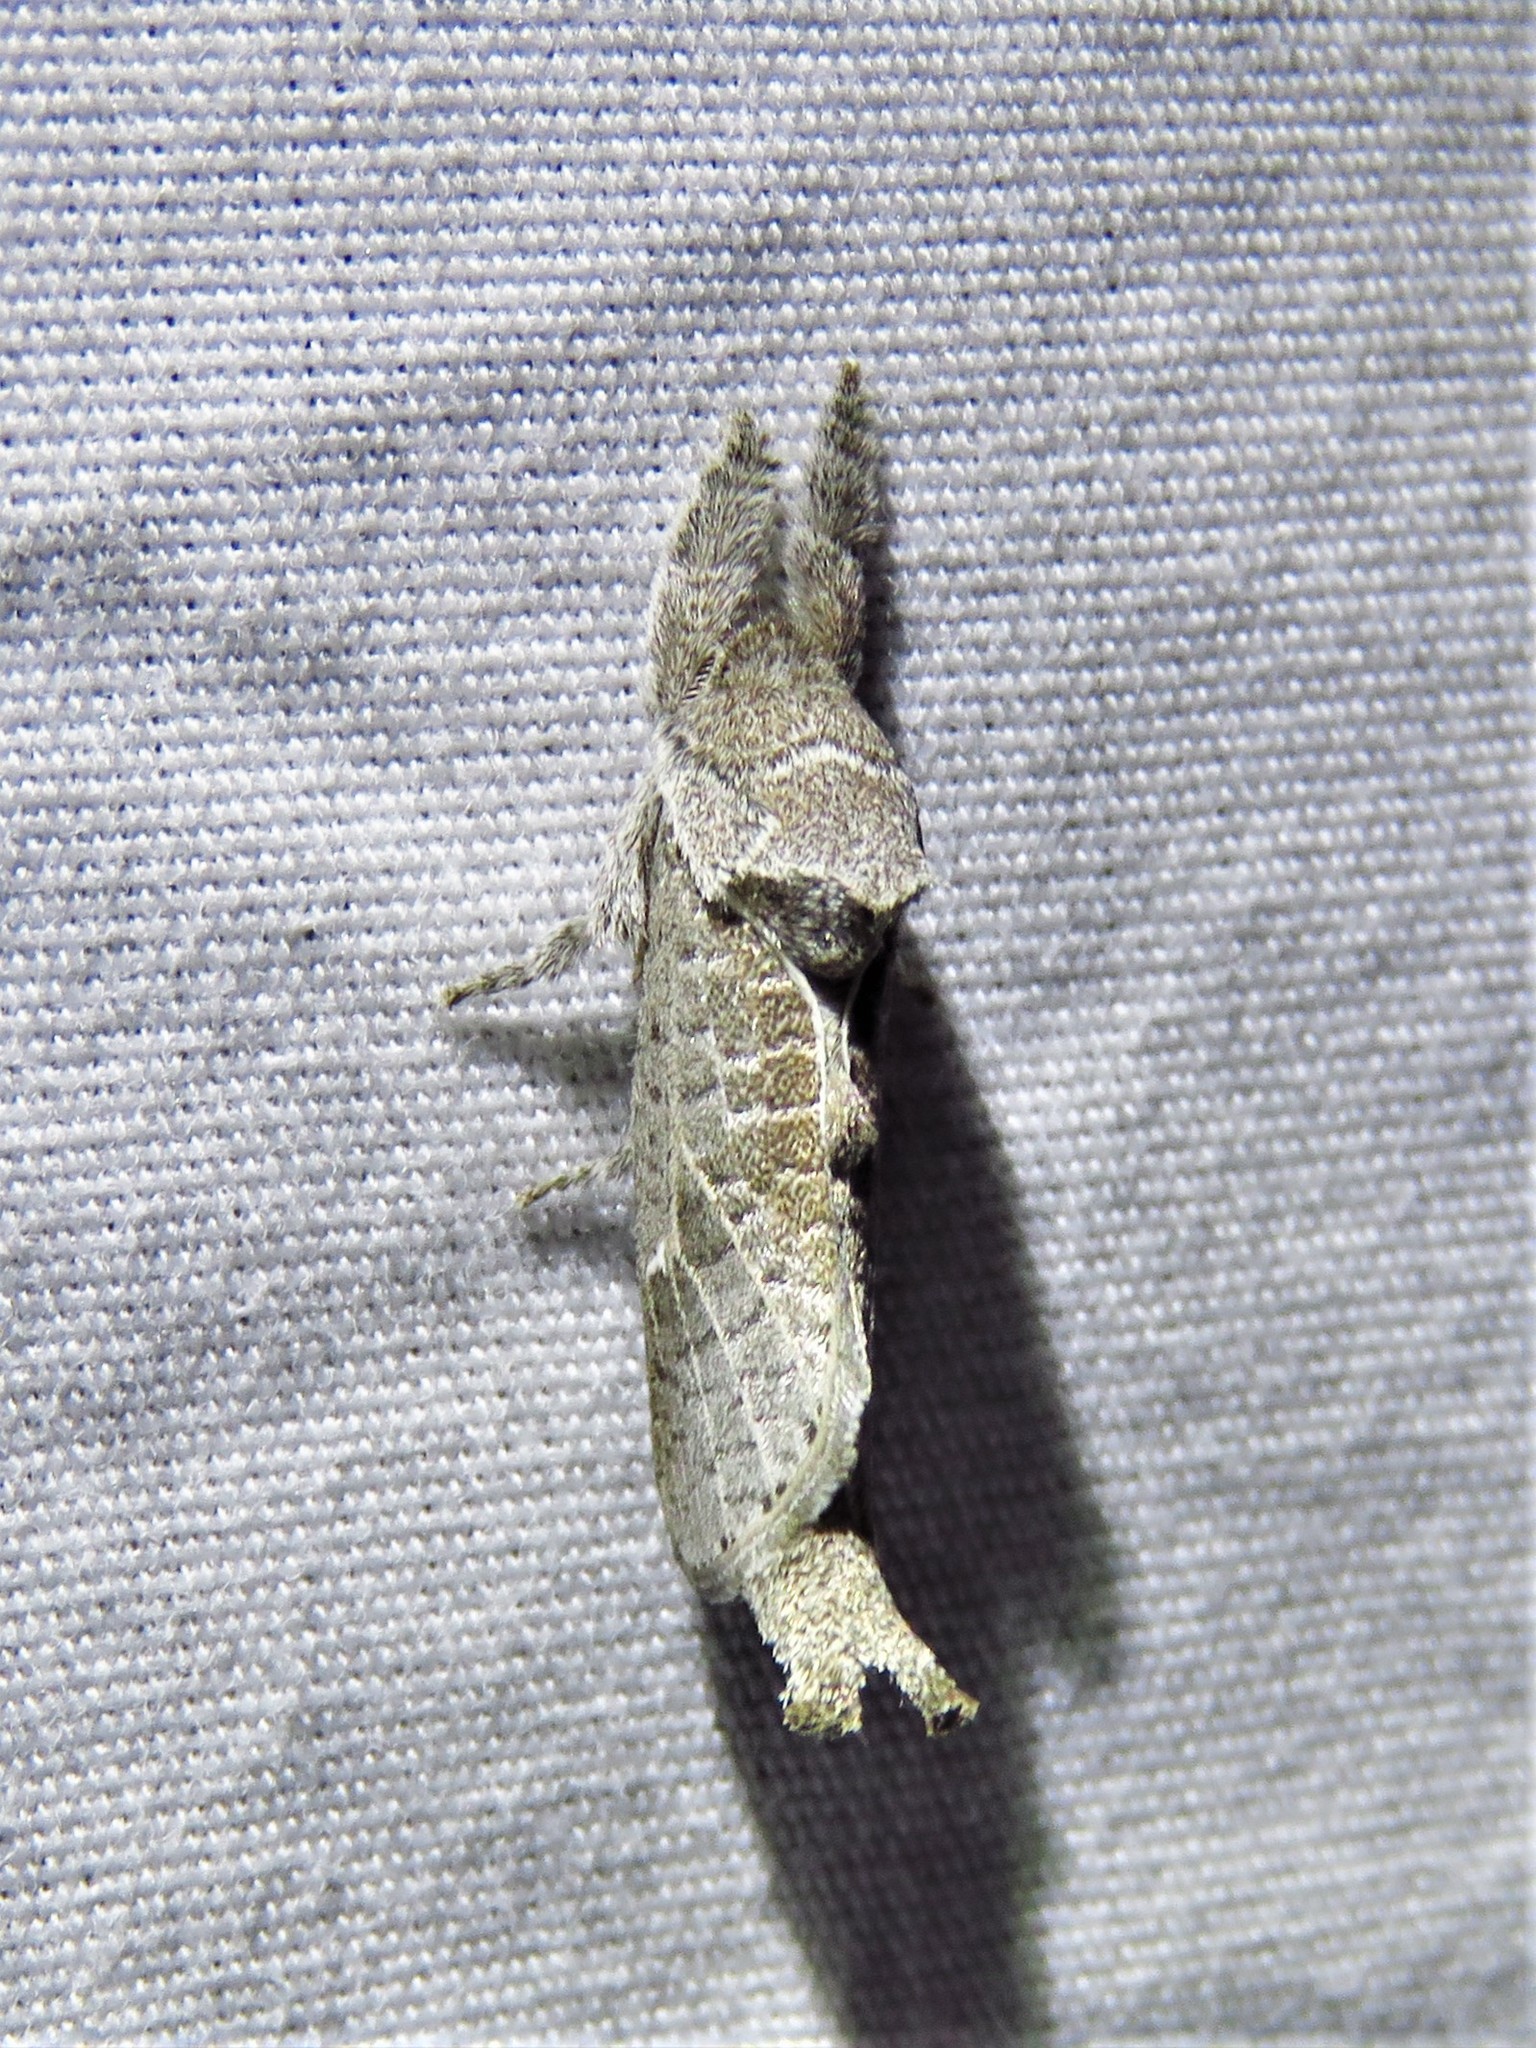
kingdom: Animalia
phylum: Arthropoda
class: Insecta
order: Lepidoptera
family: Cossidae
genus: Givira
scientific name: Givira anna
